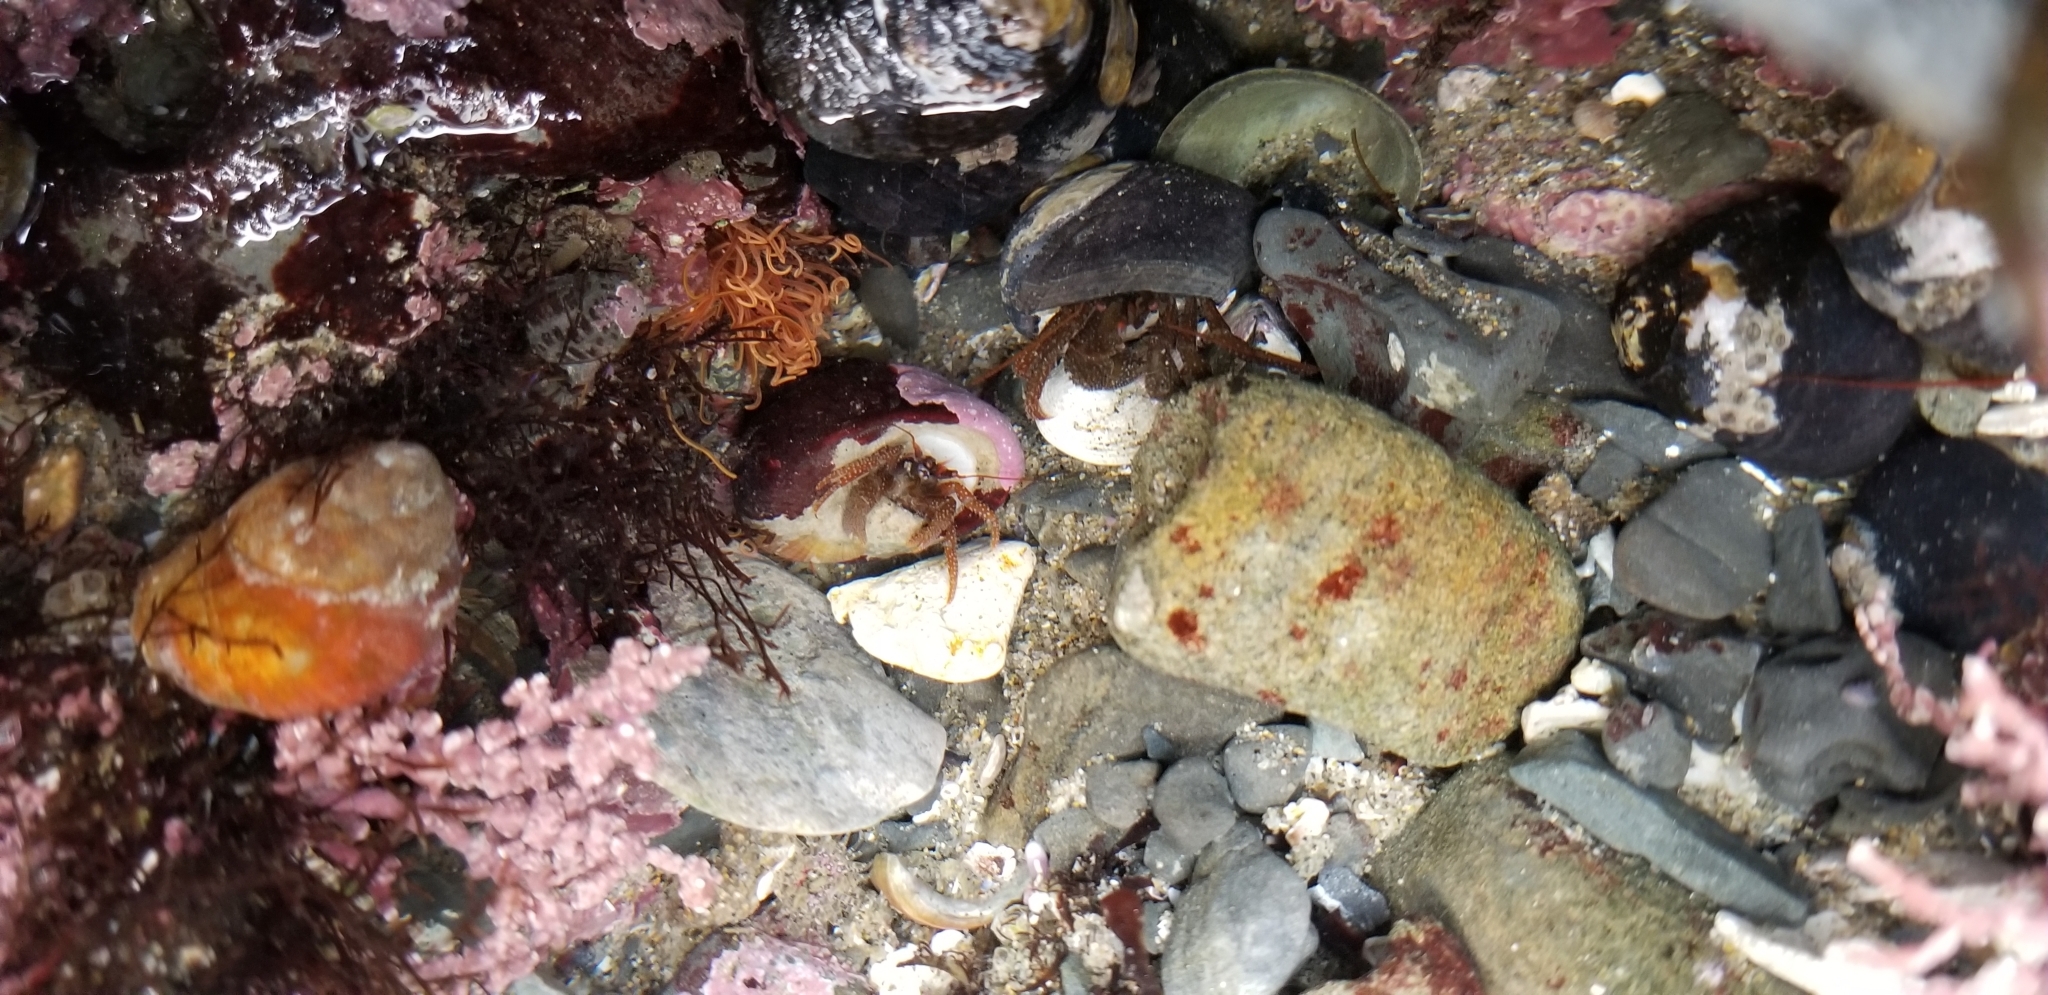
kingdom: Animalia
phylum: Arthropoda
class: Malacostraca
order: Decapoda
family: Paguridae
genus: Pagurus
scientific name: Pagurus granosimanus
